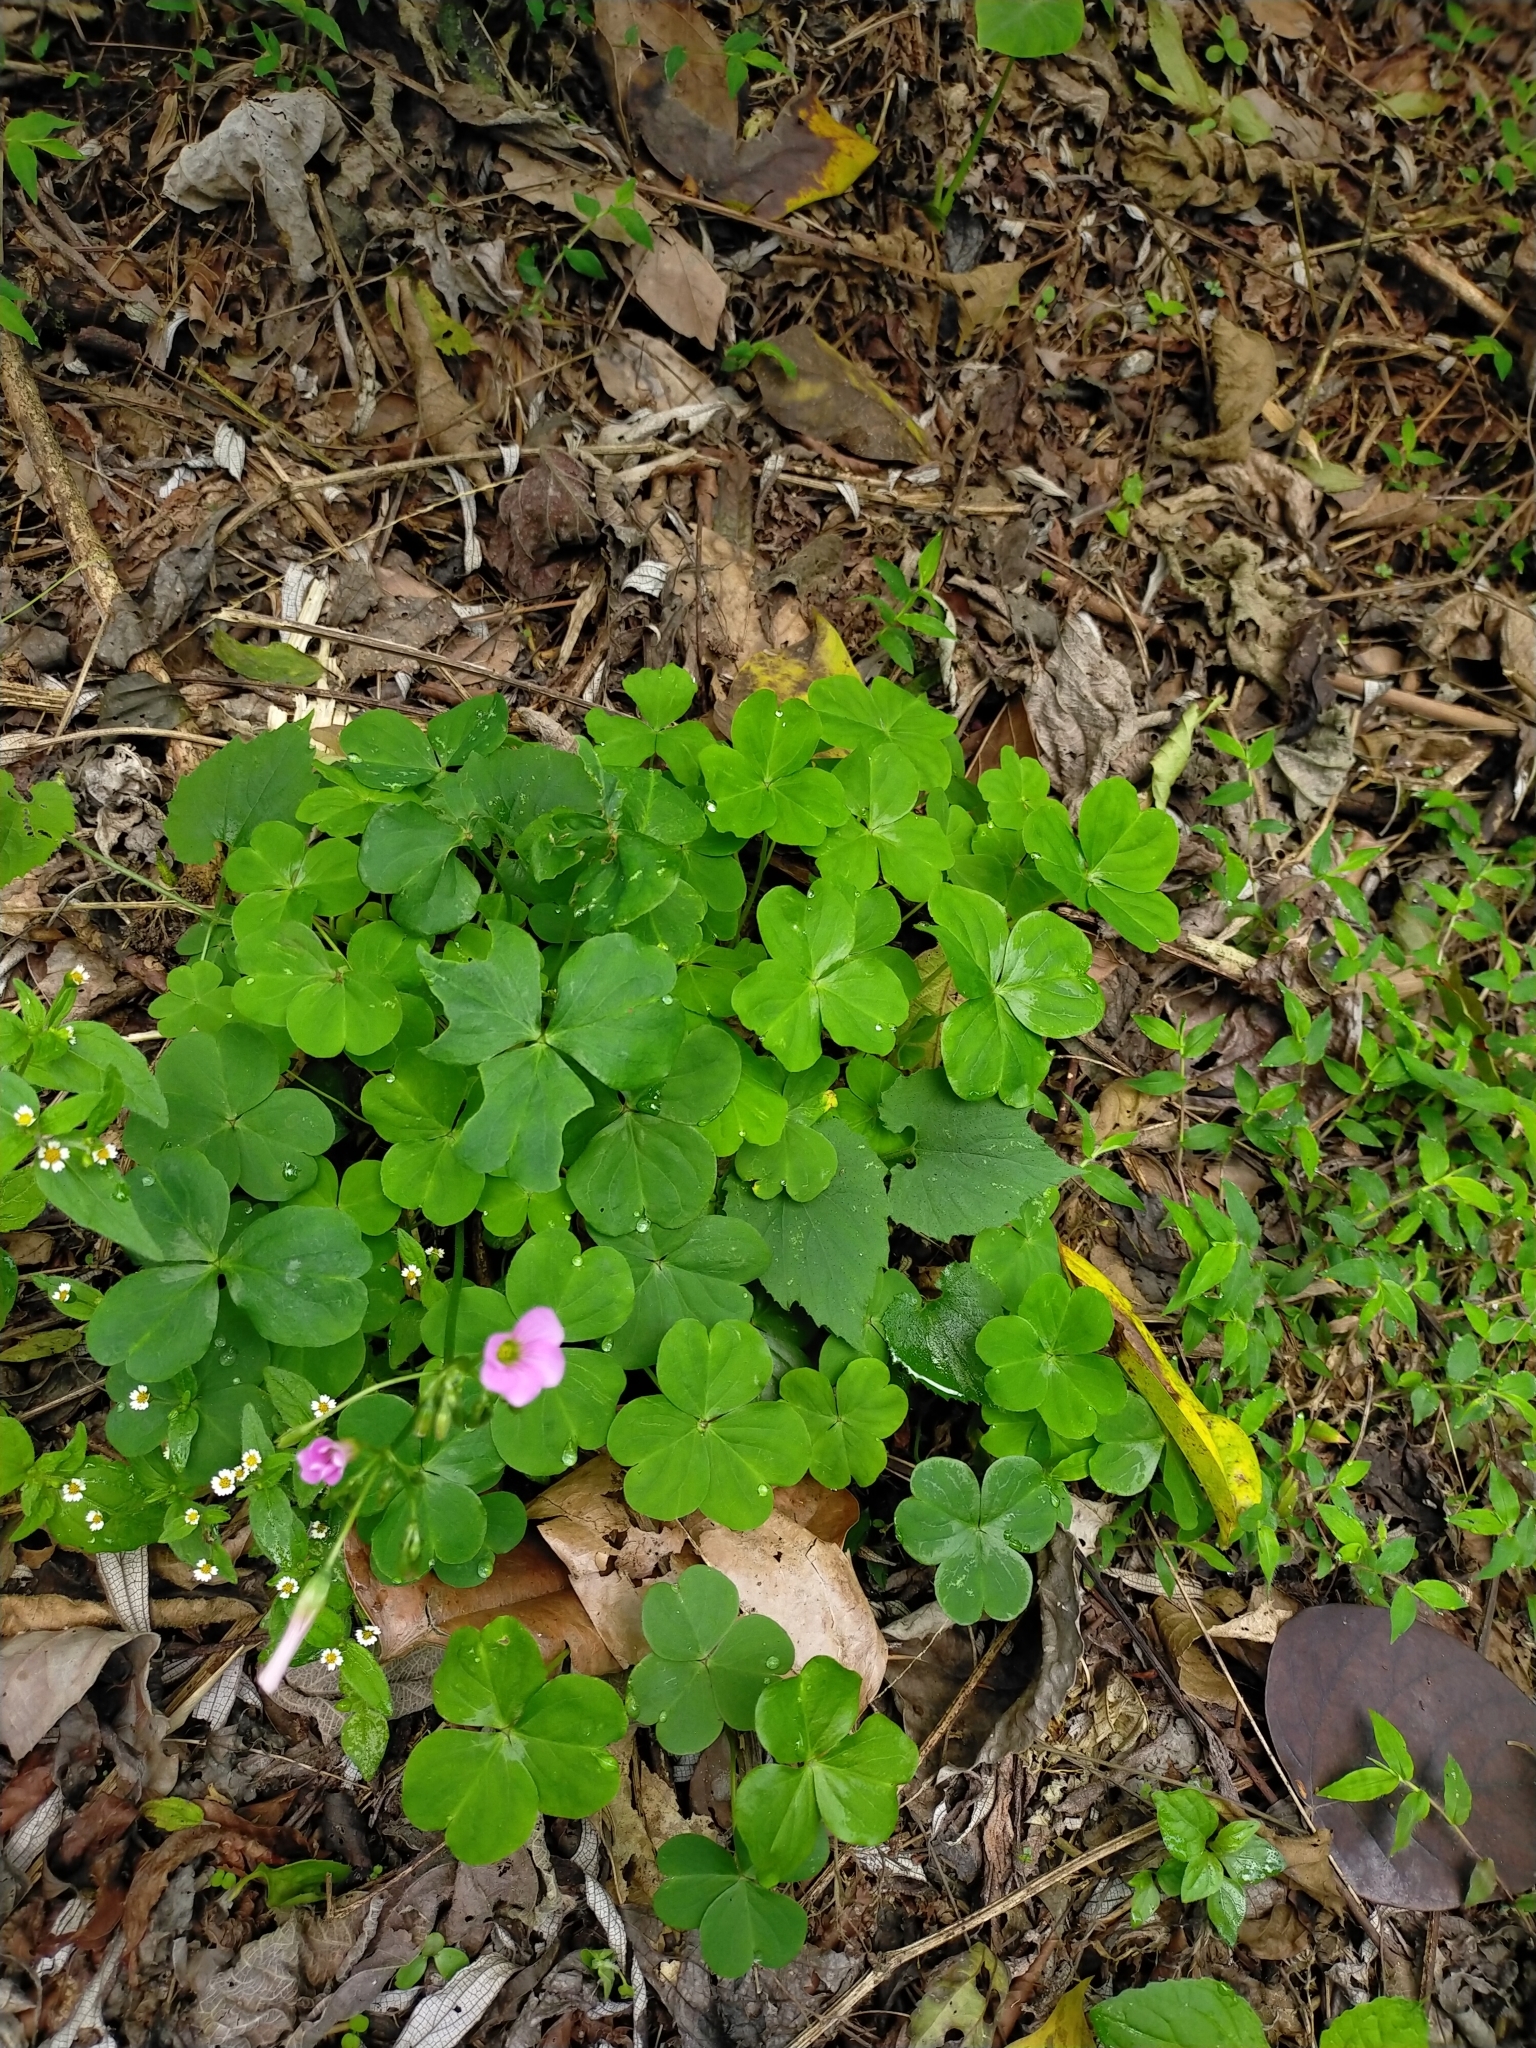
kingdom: Plantae
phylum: Tracheophyta
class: Magnoliopsida
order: Oxalidales
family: Oxalidaceae
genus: Oxalis
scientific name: Oxalis debilis
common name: Large-flowered pink-sorrel
